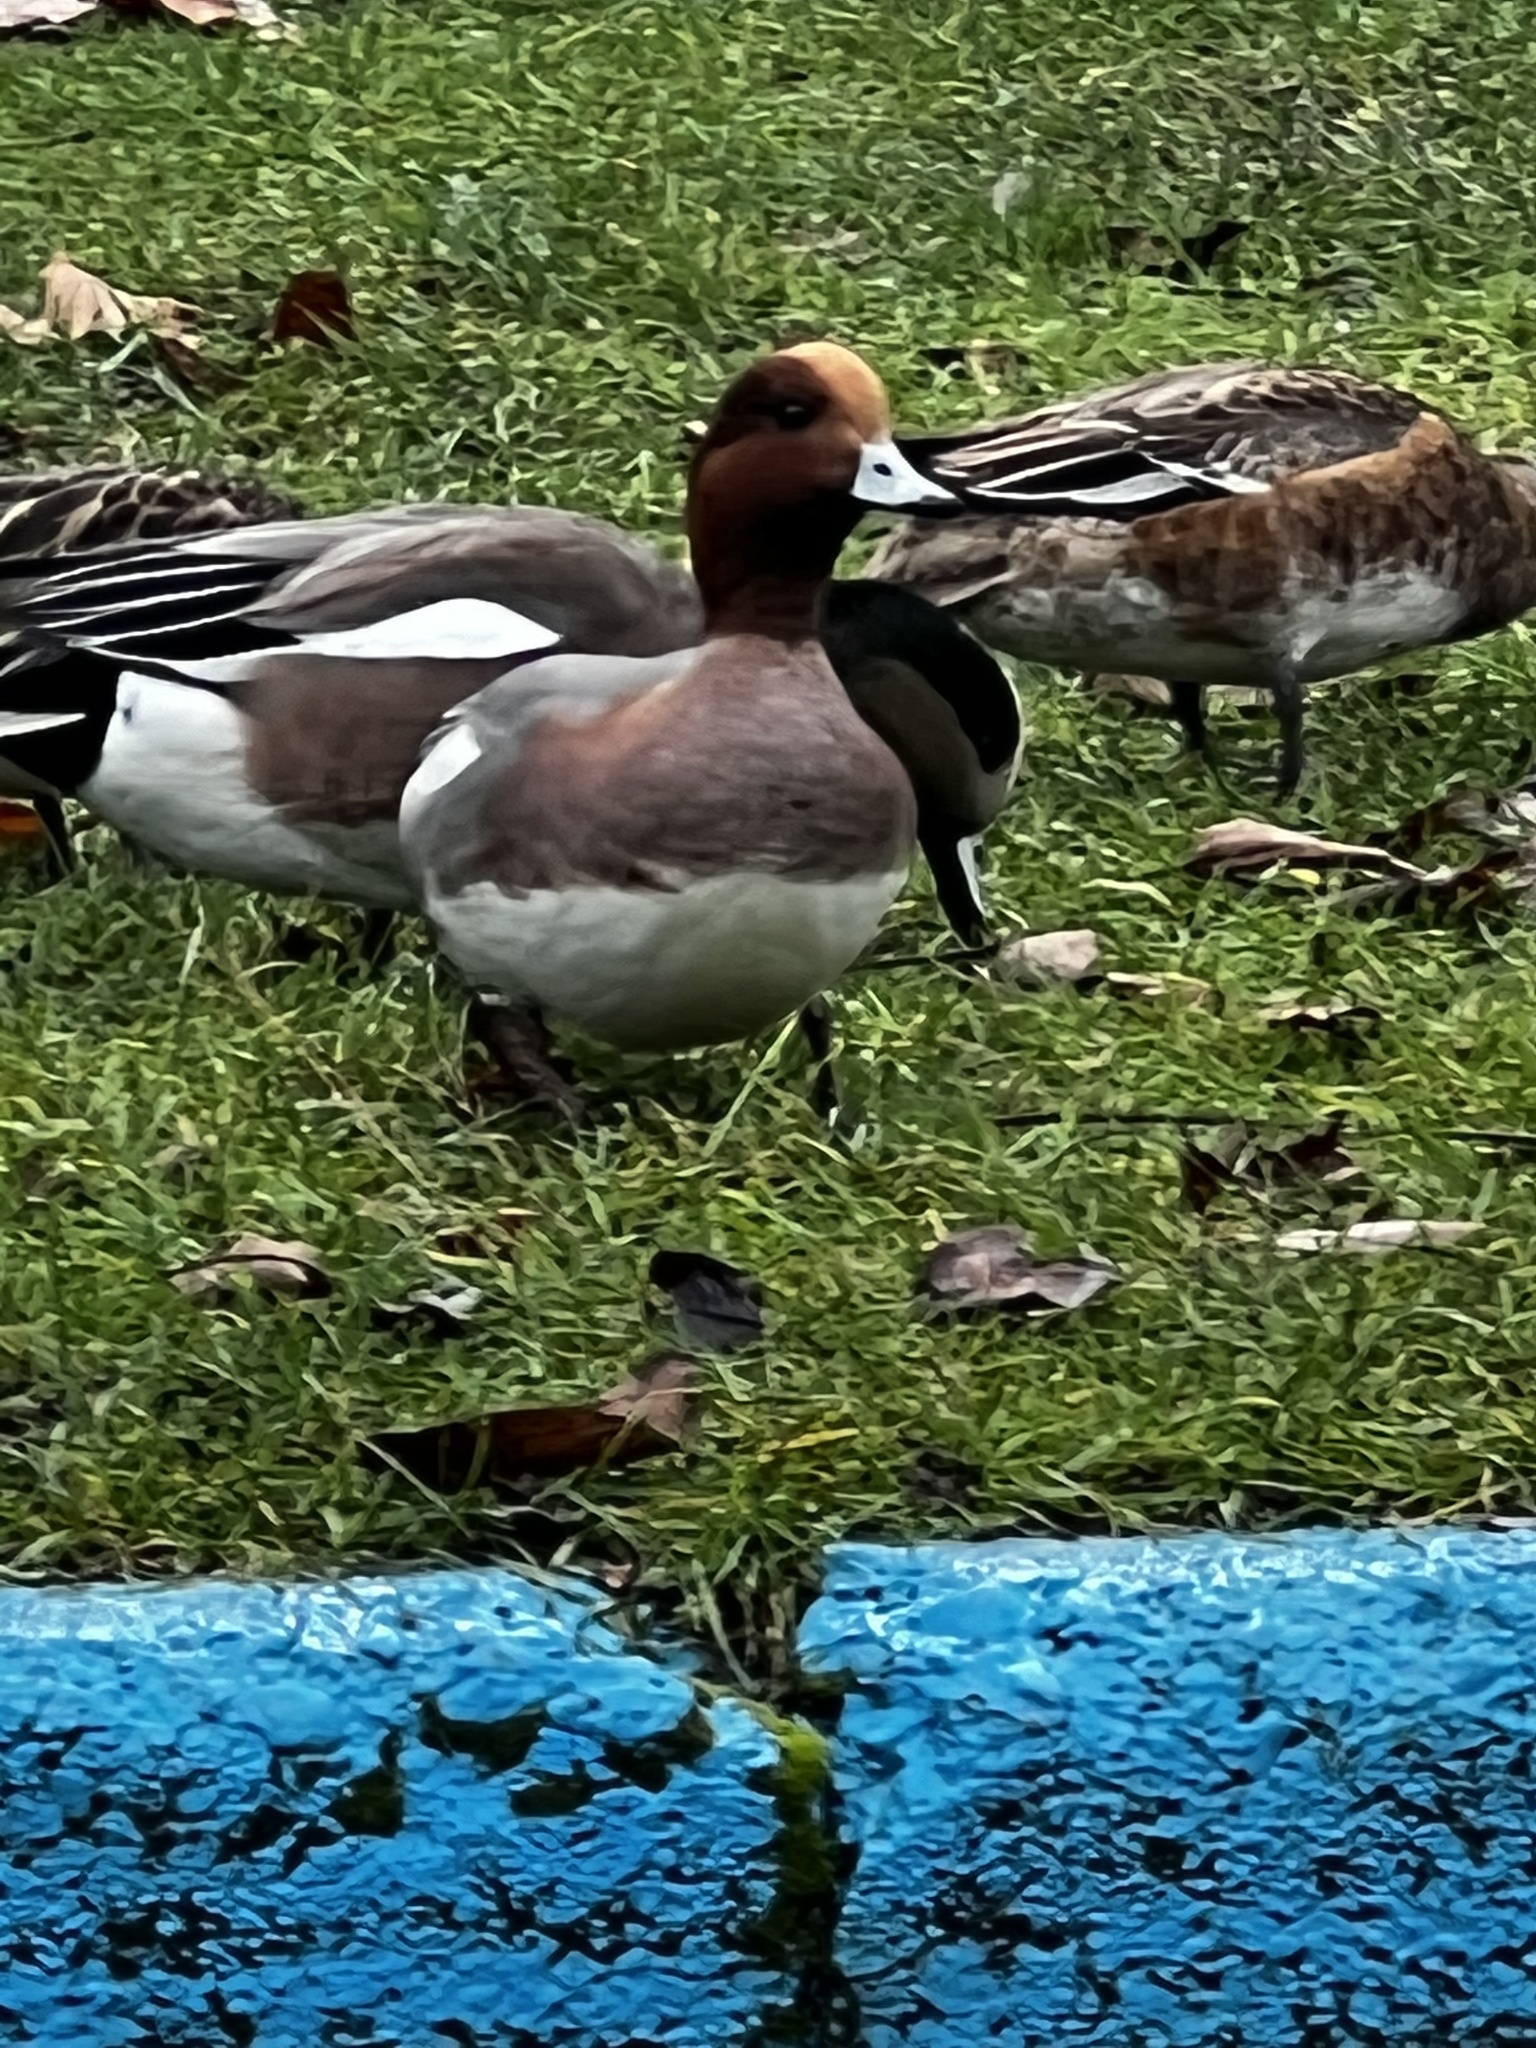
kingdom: Animalia
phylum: Chordata
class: Aves
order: Anseriformes
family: Anatidae
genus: Mareca
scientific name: Mareca penelope
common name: Eurasian wigeon
